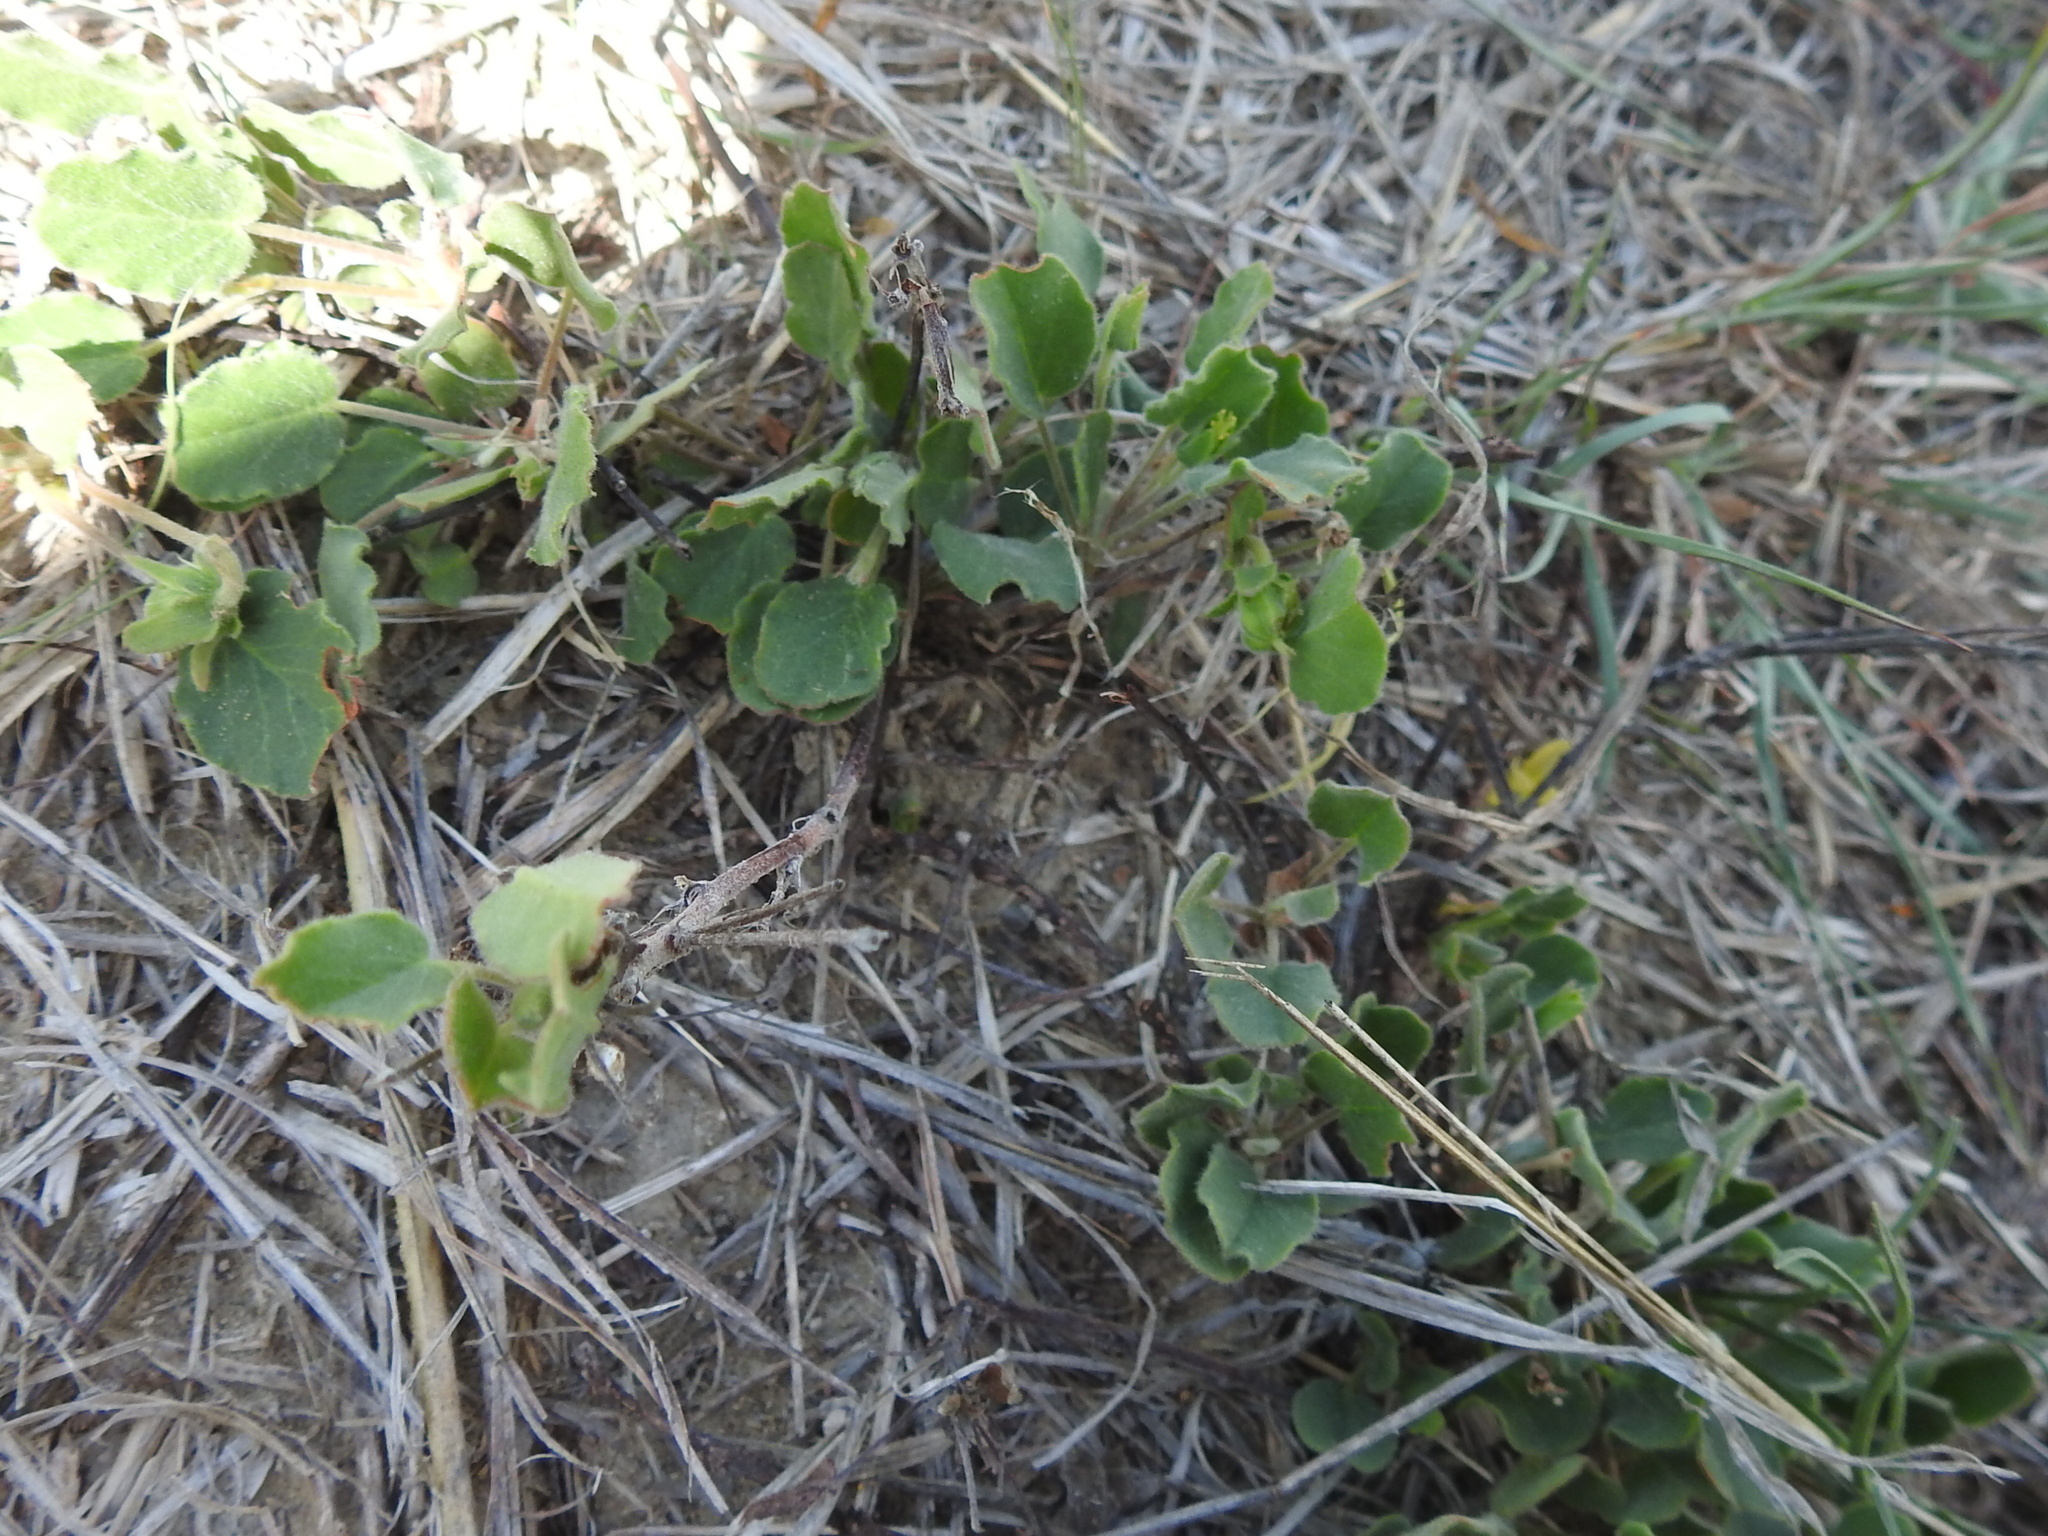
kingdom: Plantae
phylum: Tracheophyta
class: Magnoliopsida
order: Oxalidales
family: Oxalidaceae
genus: Oxalis
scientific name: Oxalis dichondrifolia
